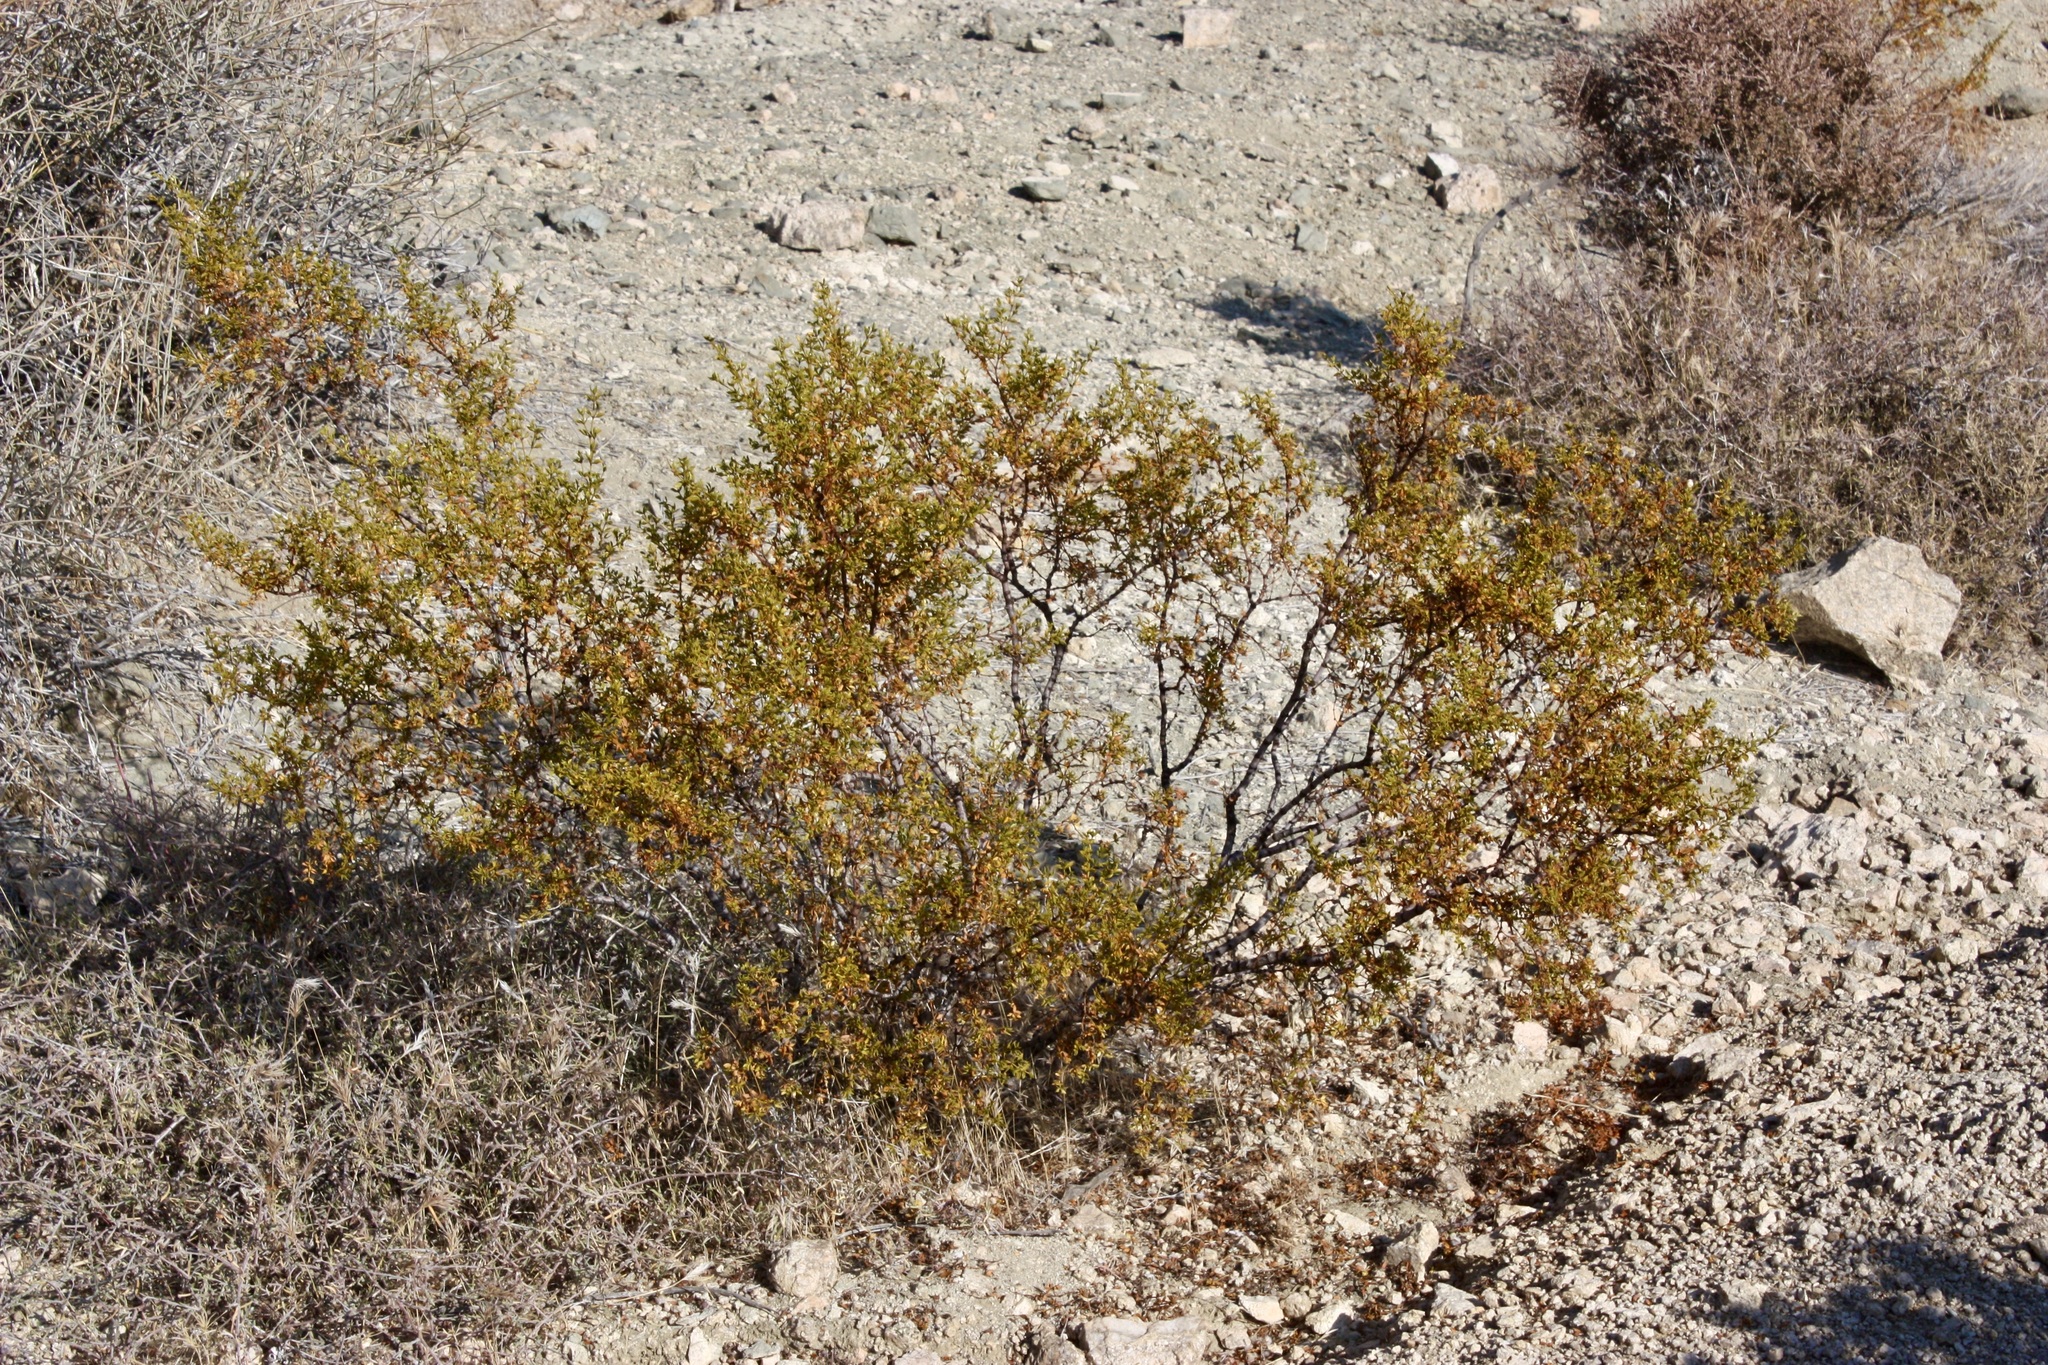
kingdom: Plantae
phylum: Tracheophyta
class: Magnoliopsida
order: Zygophyllales
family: Zygophyllaceae
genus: Larrea
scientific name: Larrea tridentata
